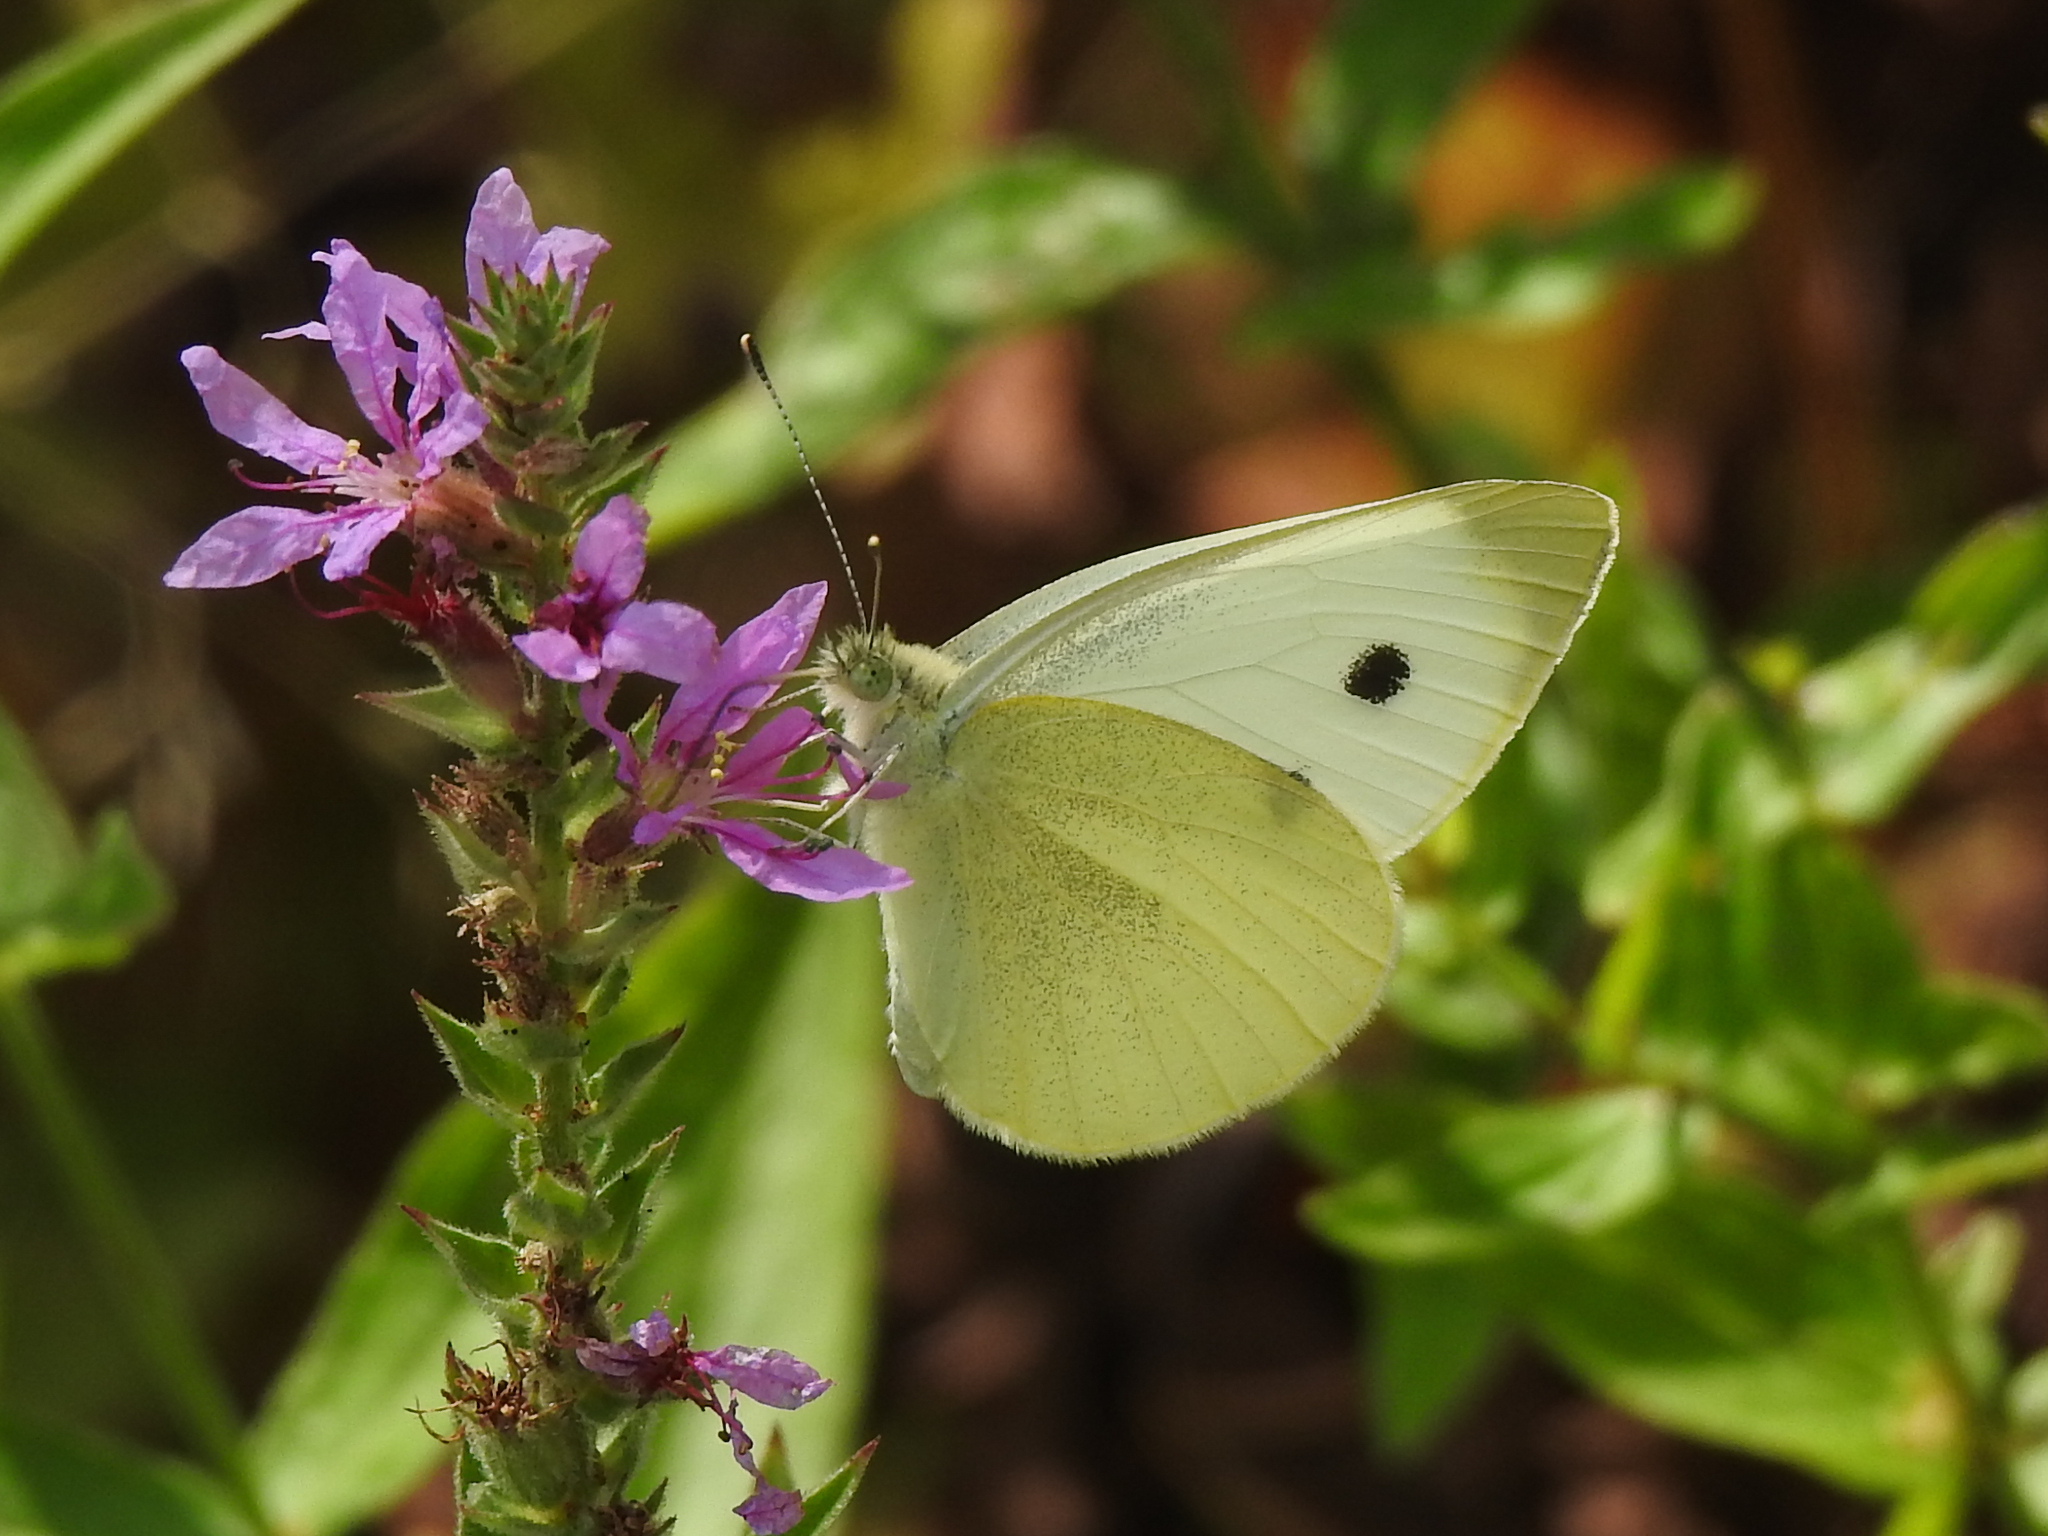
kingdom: Animalia
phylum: Arthropoda
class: Insecta
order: Lepidoptera
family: Pieridae
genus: Pieris
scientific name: Pieris rapae
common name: Small white
